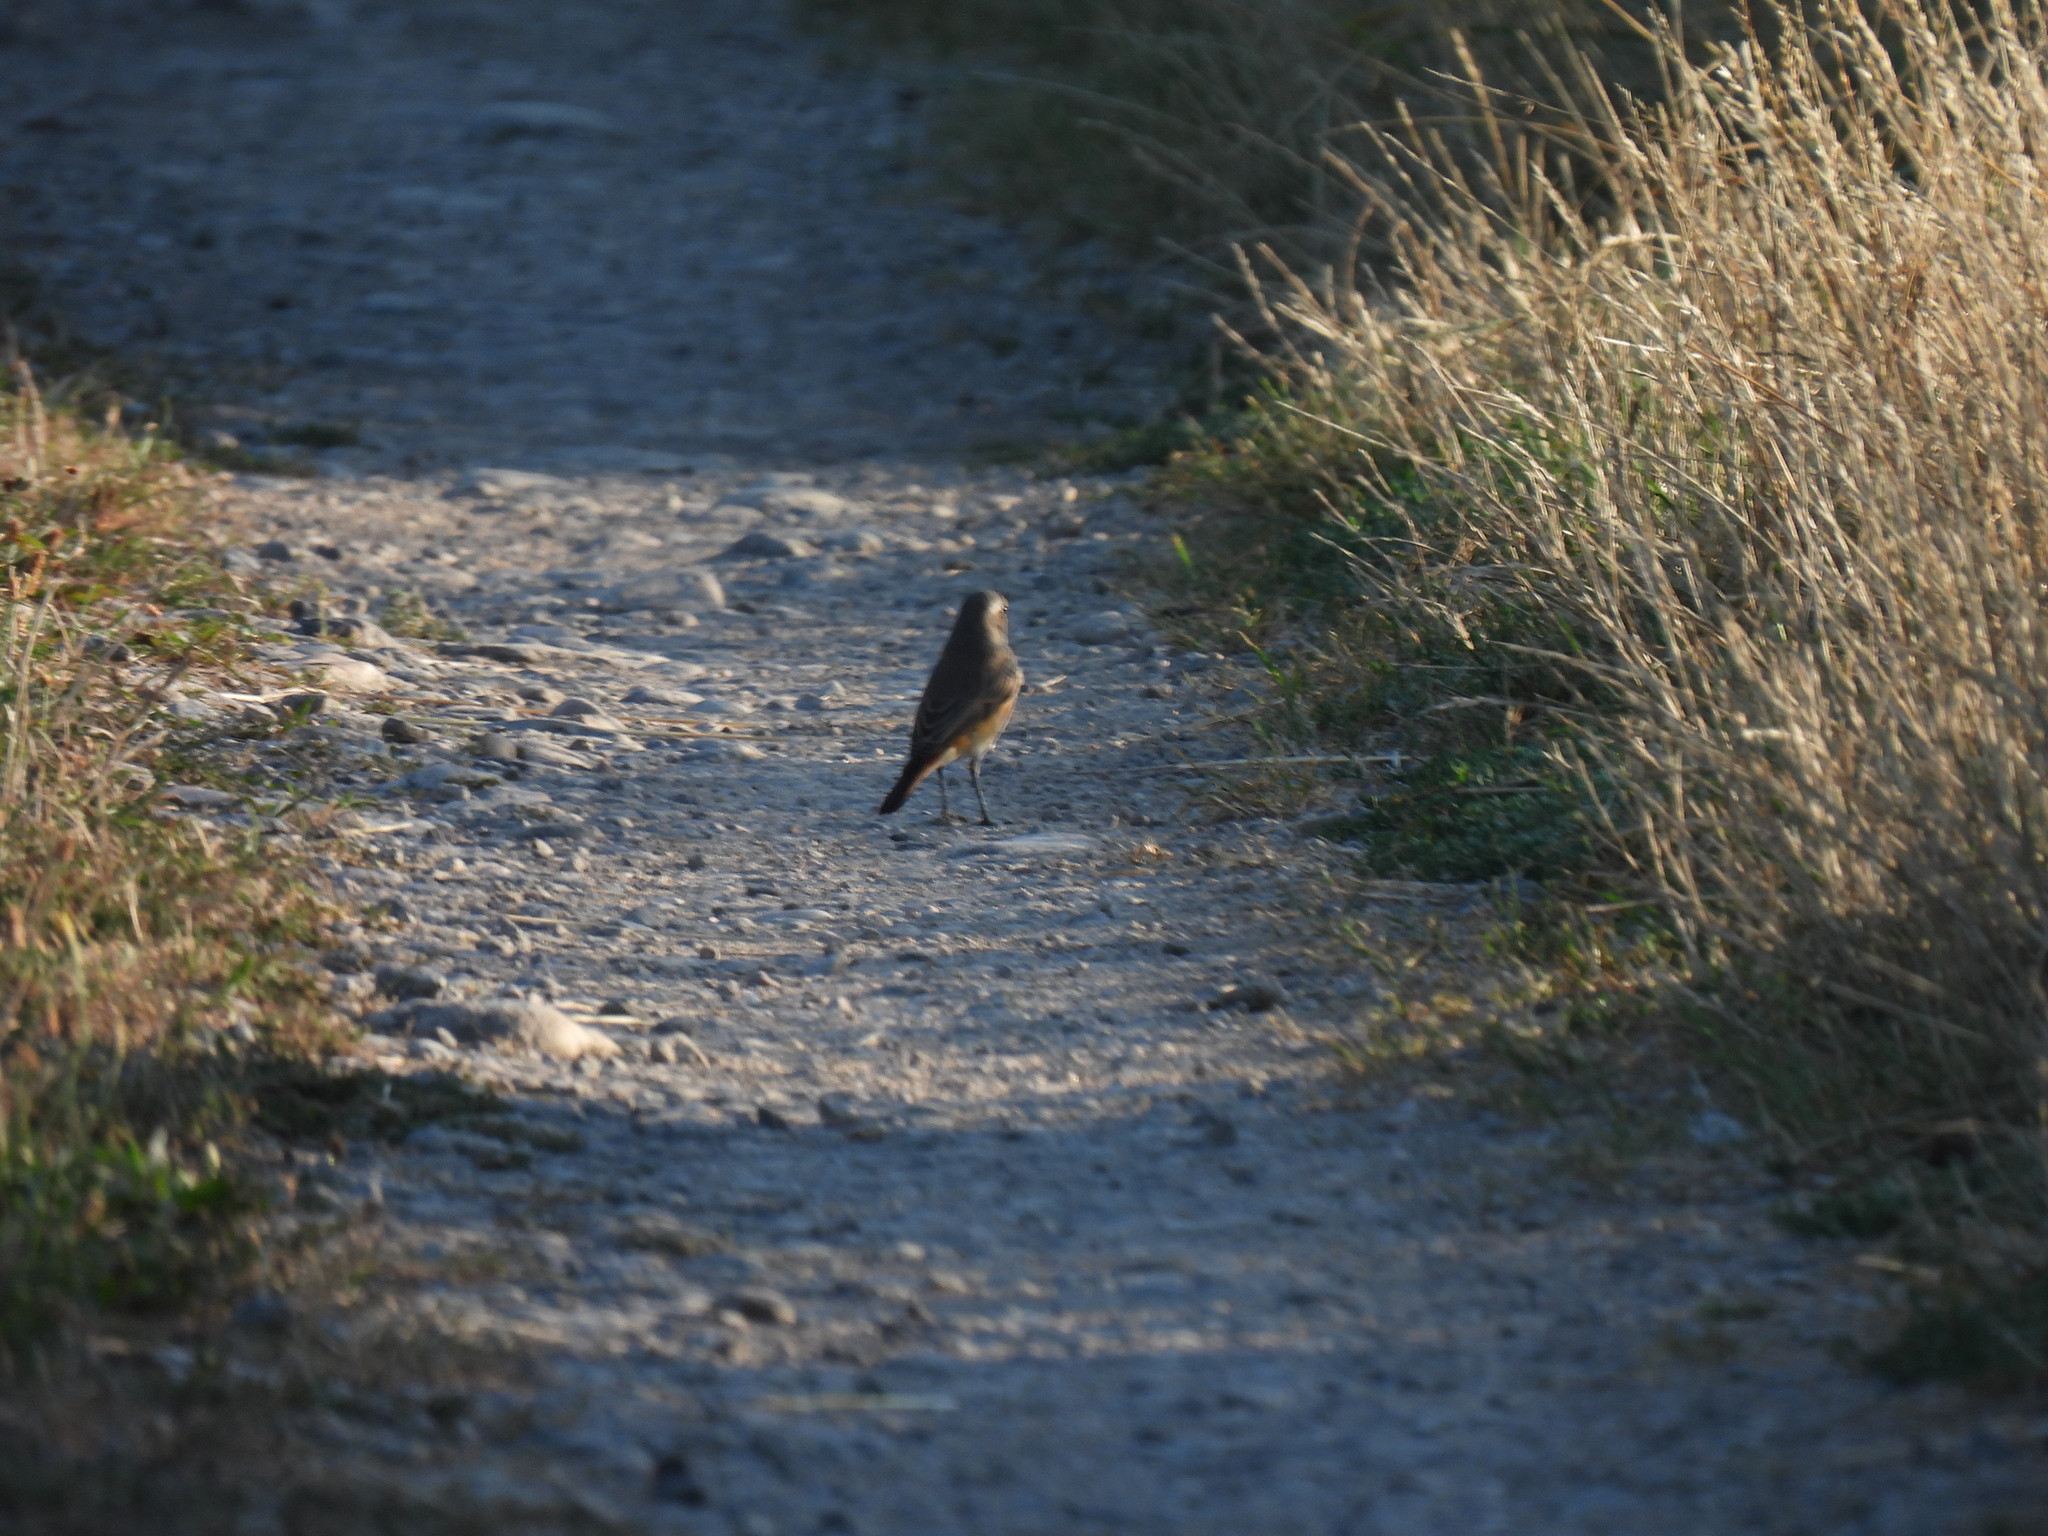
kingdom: Animalia
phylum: Chordata
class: Aves
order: Passeriformes
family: Muscicapidae
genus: Phoenicurus
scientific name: Phoenicurus phoenicurus
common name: Common redstart
